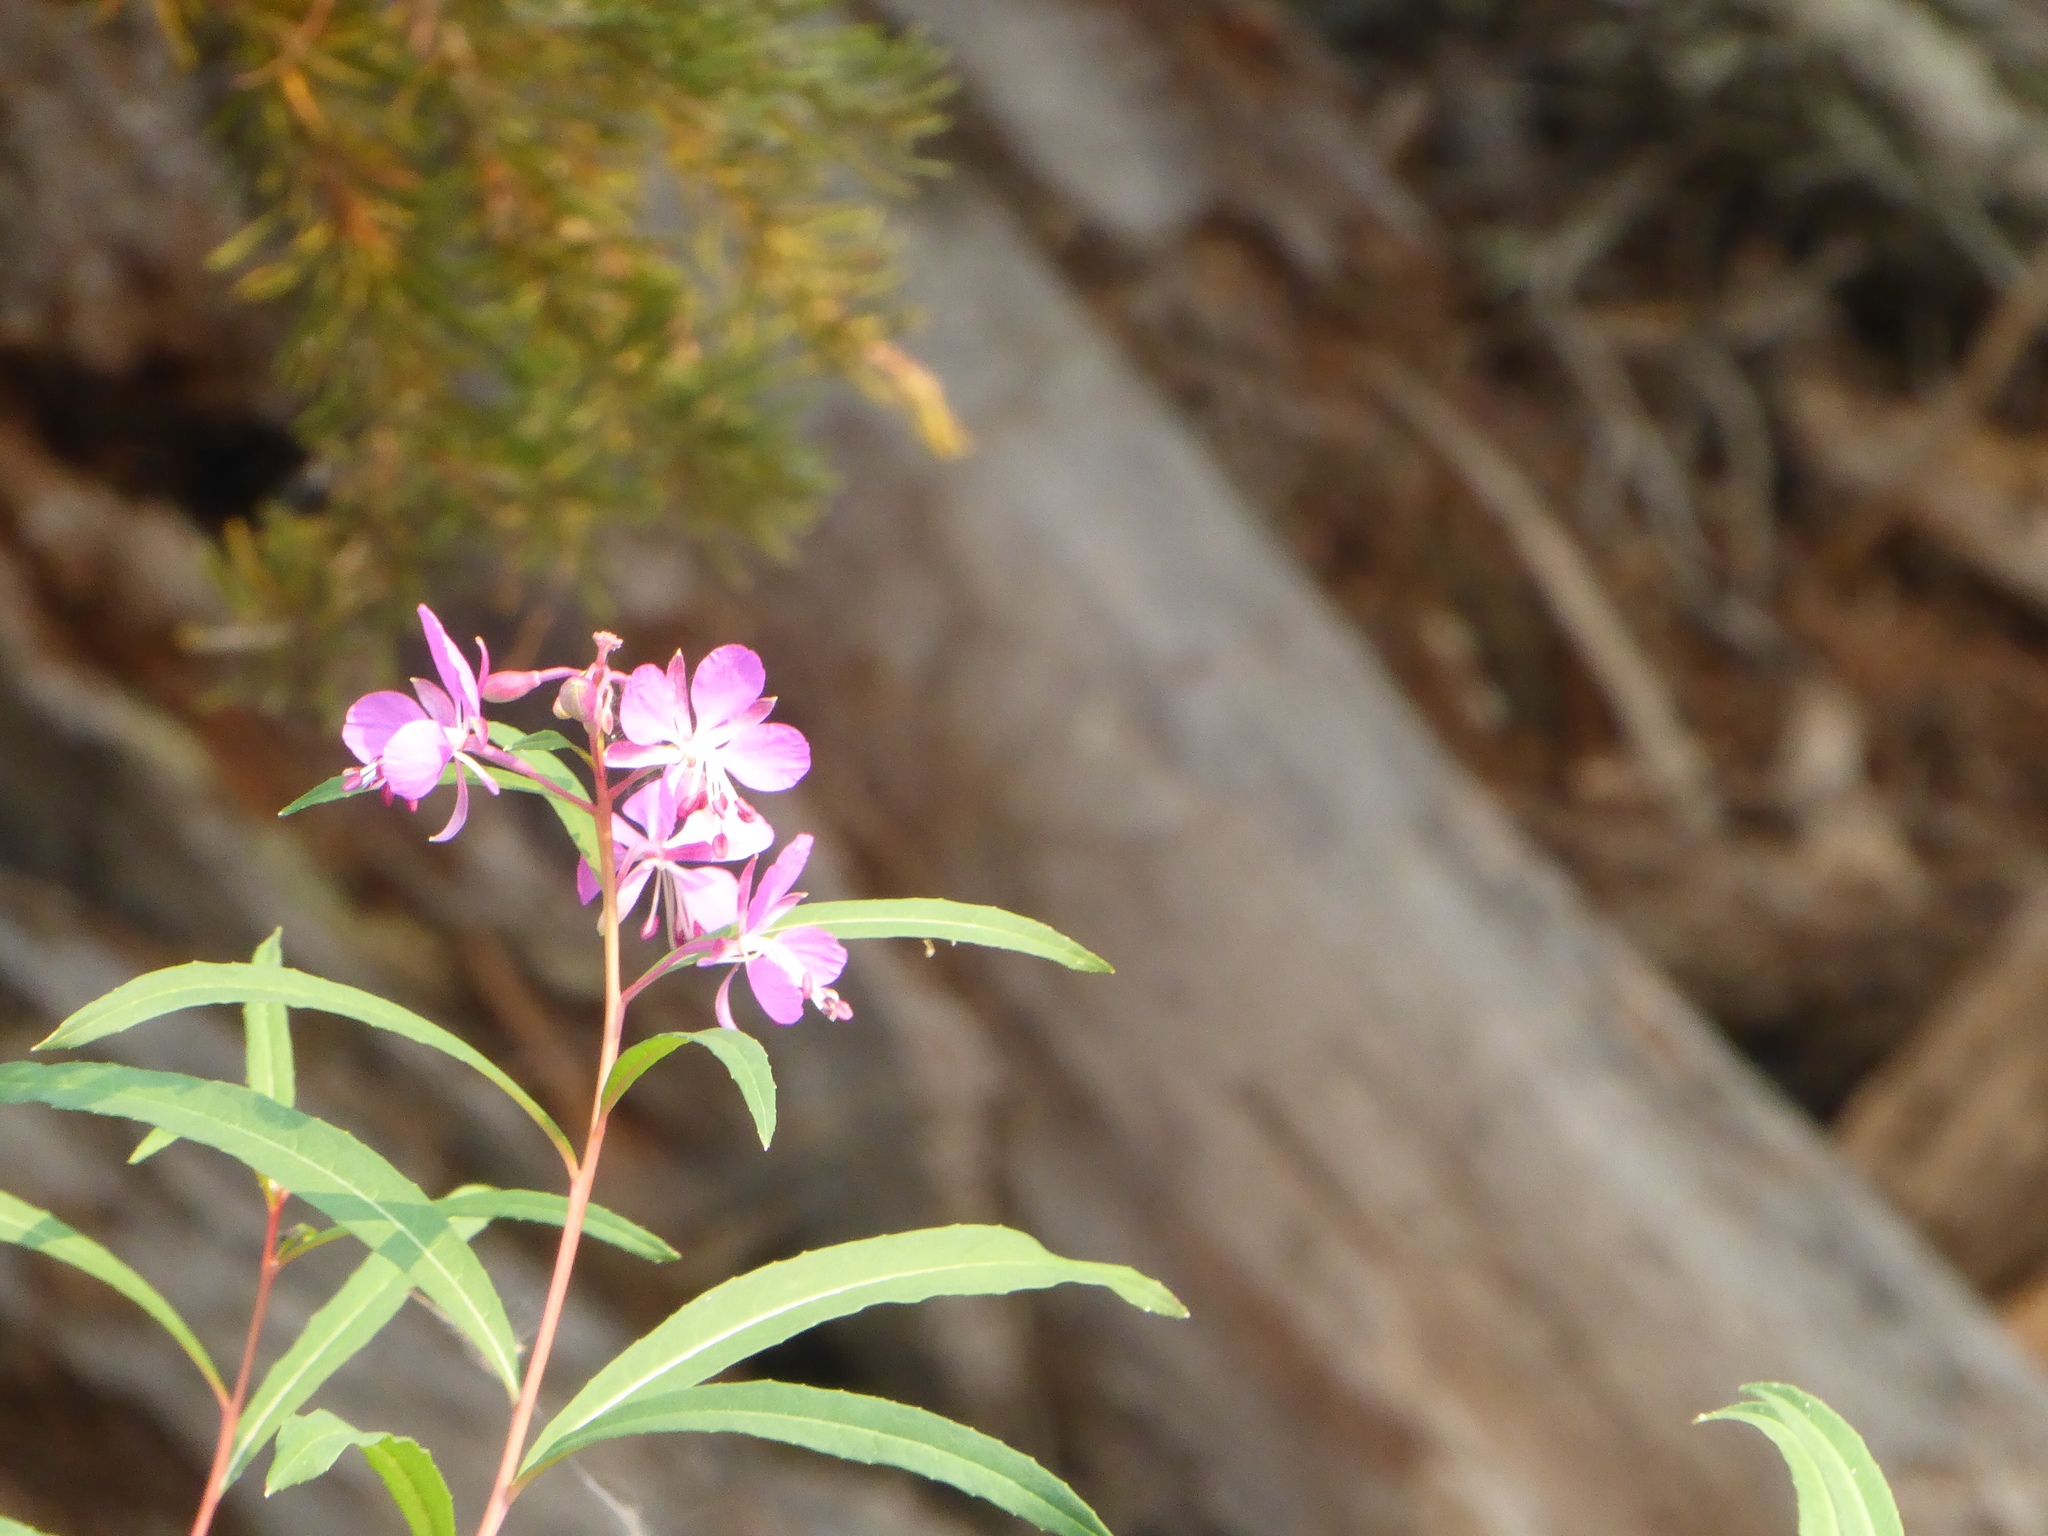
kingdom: Plantae
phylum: Tracheophyta
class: Magnoliopsida
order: Myrtales
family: Onagraceae
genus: Chamaenerion
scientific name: Chamaenerion angustifolium
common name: Fireweed
